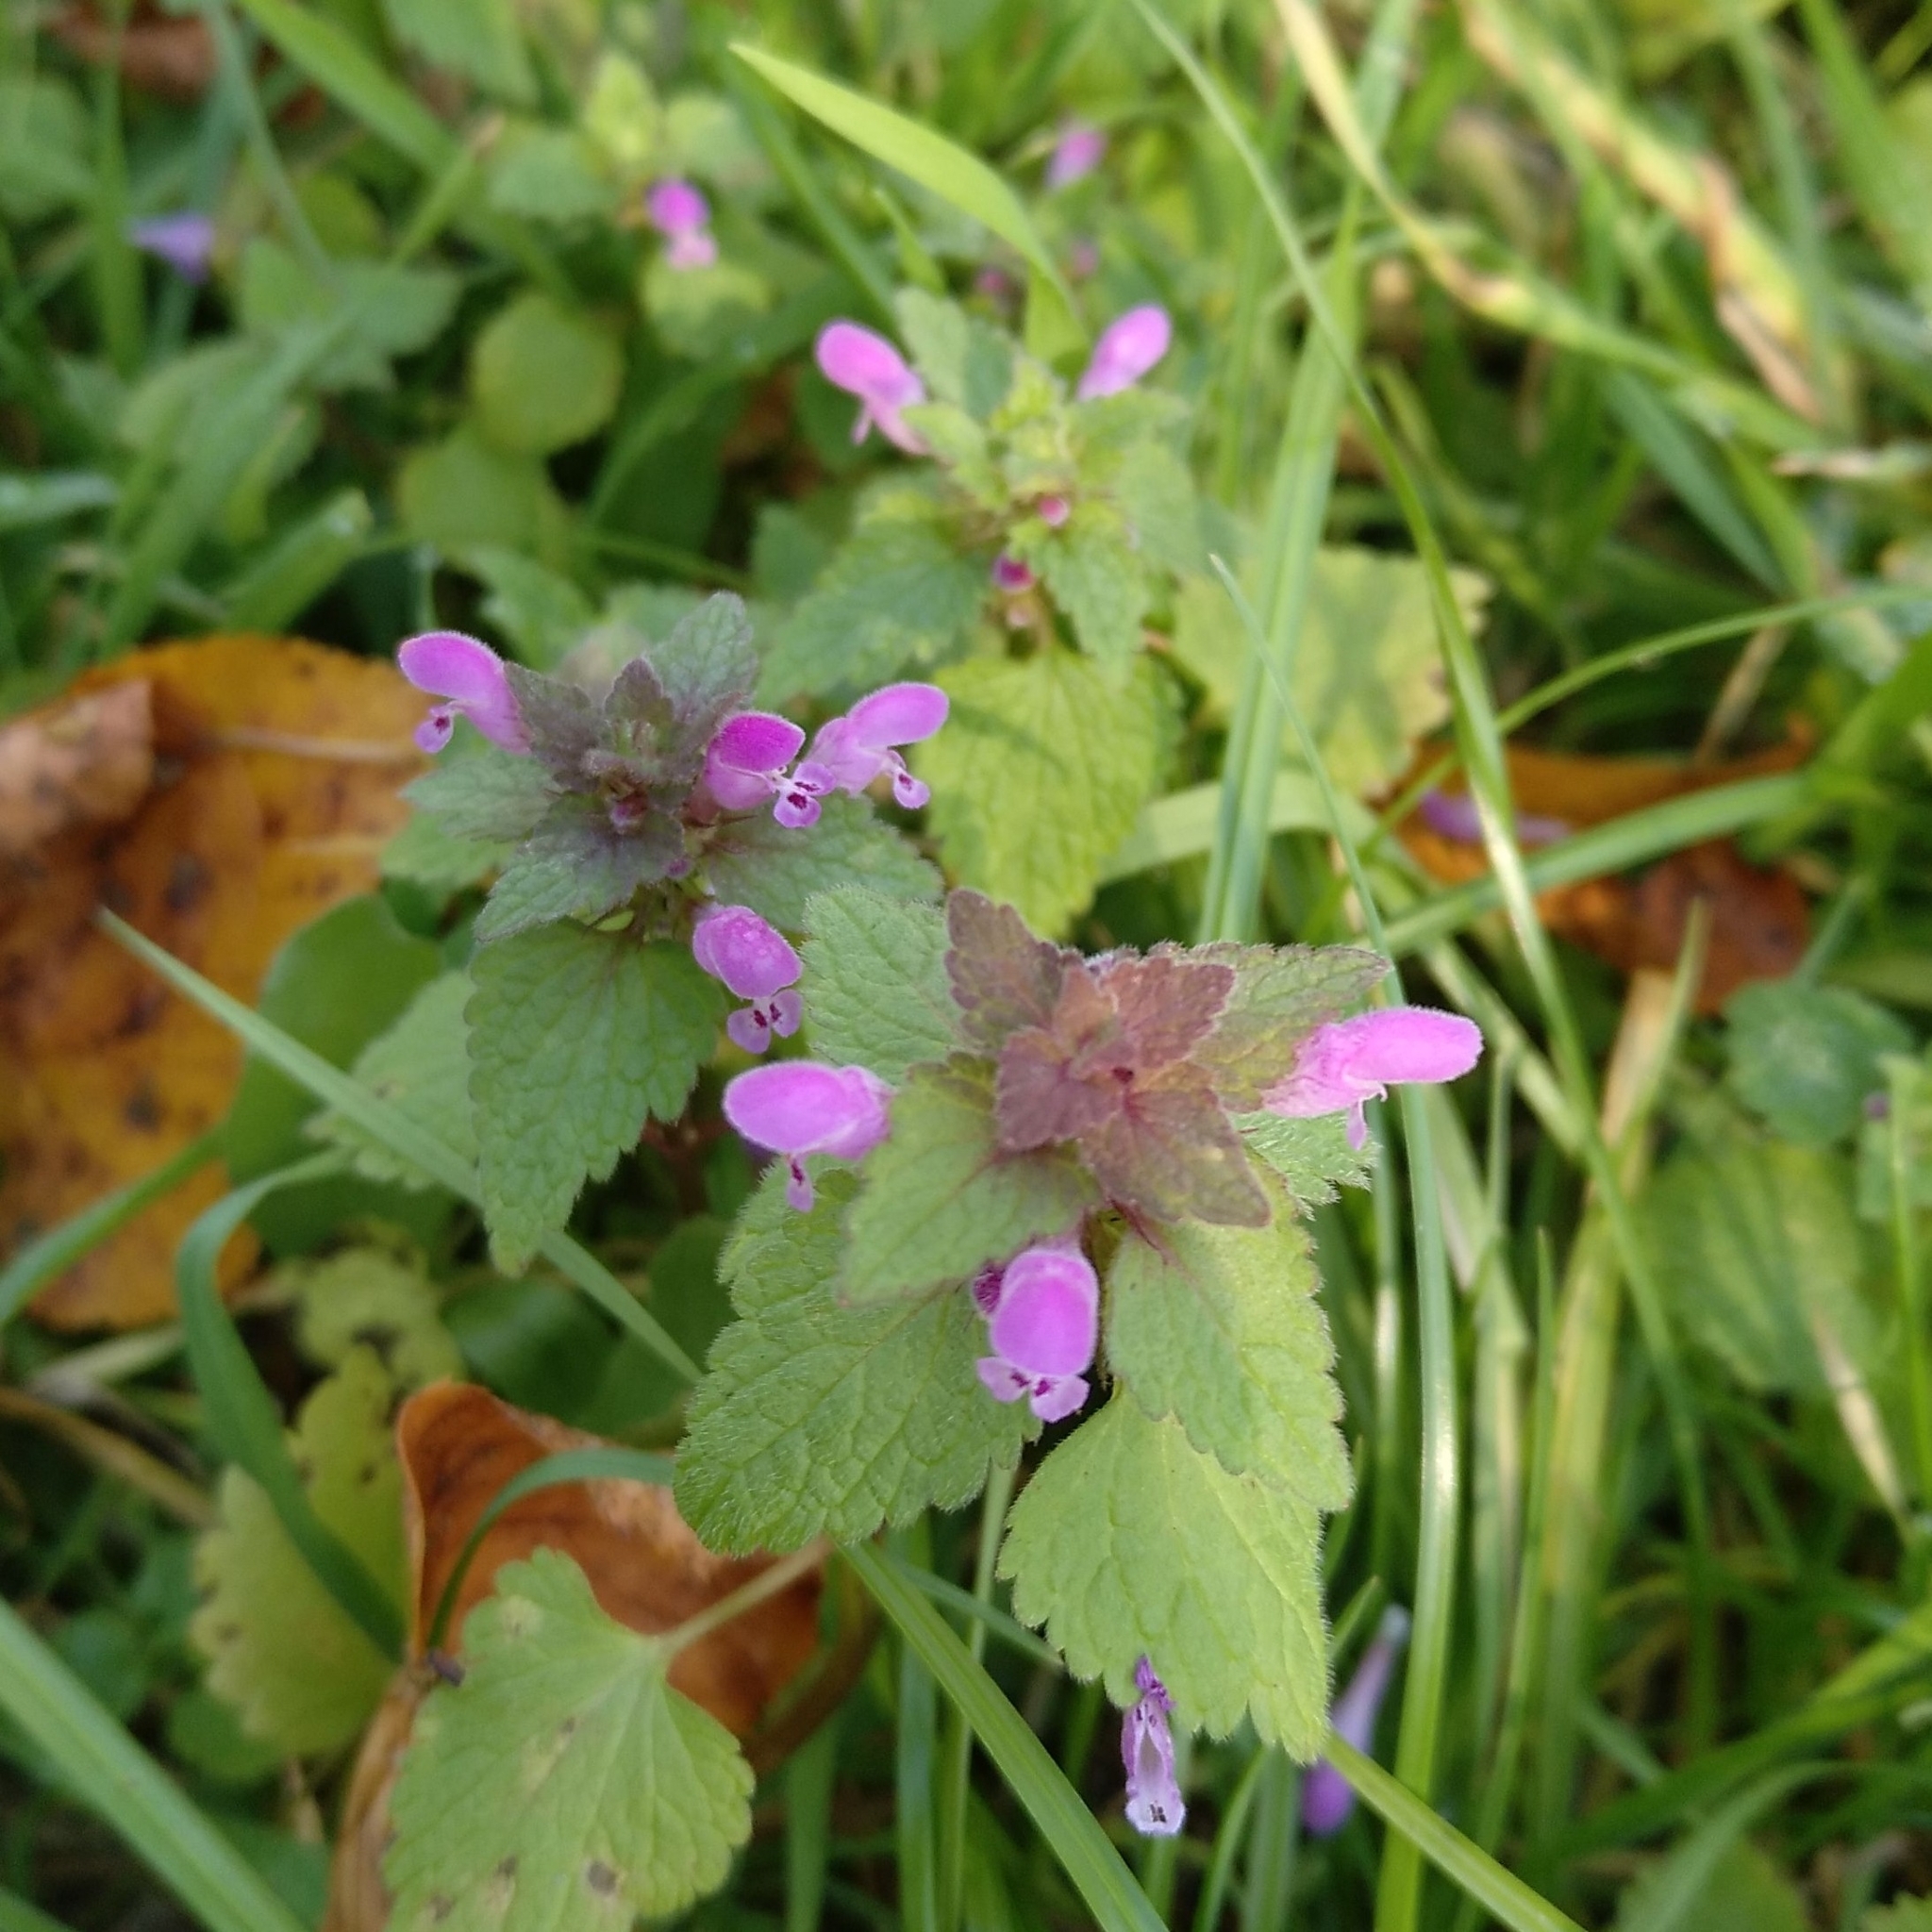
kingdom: Plantae
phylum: Tracheophyta
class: Magnoliopsida
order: Lamiales
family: Lamiaceae
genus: Lamium
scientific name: Lamium purpureum
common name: Red dead-nettle
